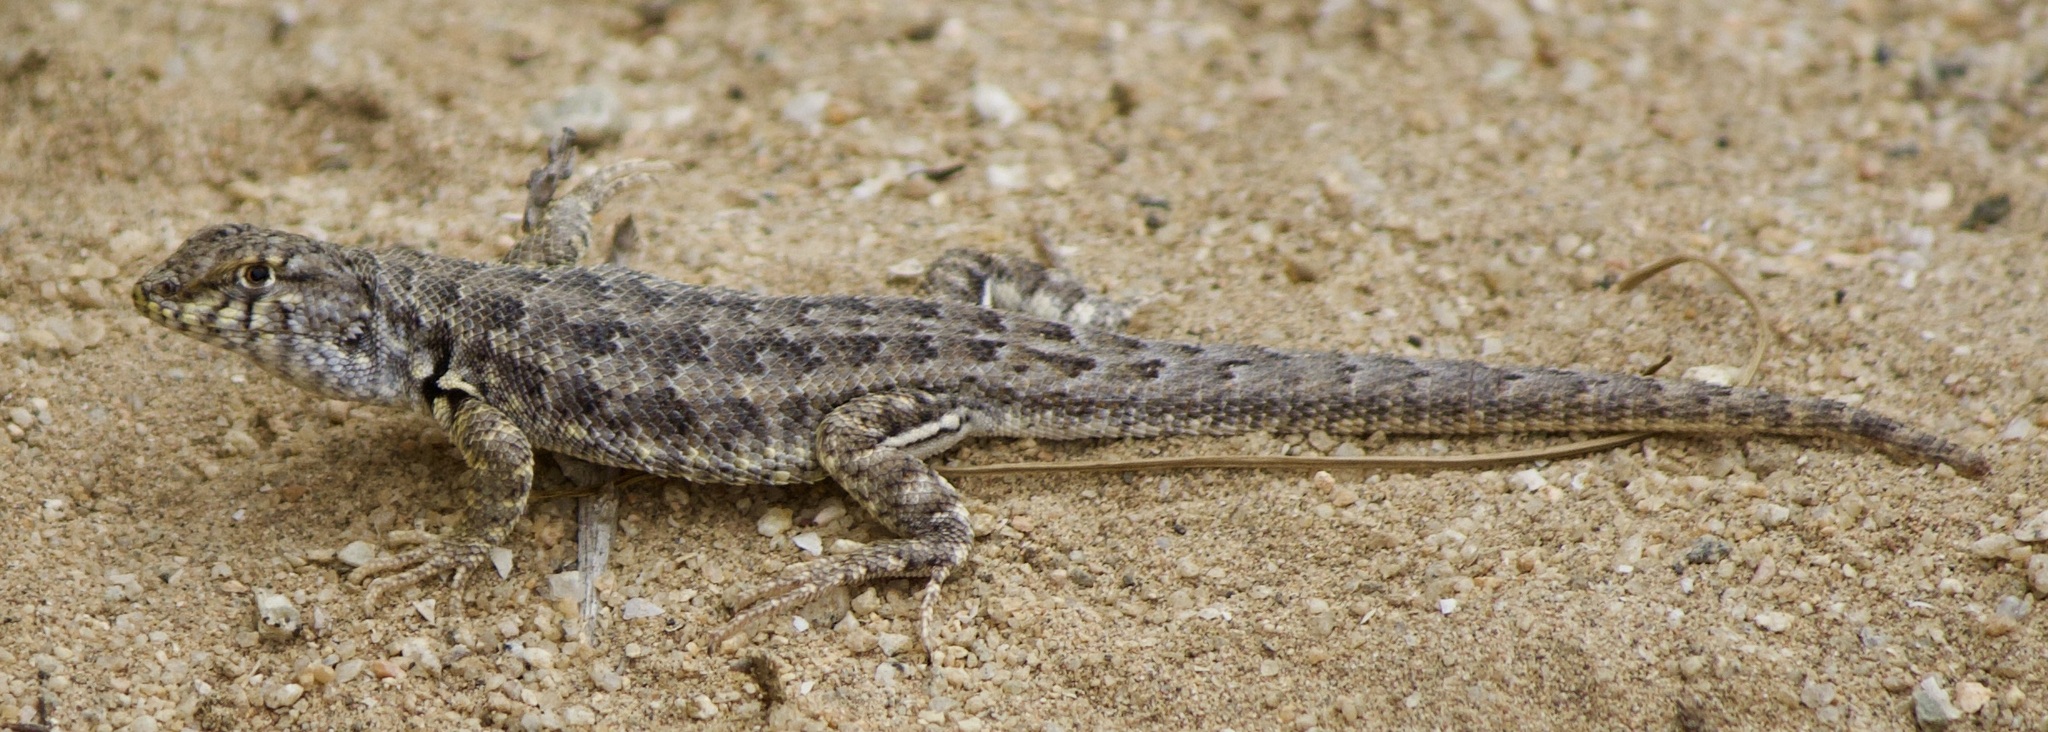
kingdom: Animalia
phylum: Chordata
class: Squamata
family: Liolaemidae
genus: Liolaemus
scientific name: Liolaemus nigromaculatus
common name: Many-spotted tree iguana
